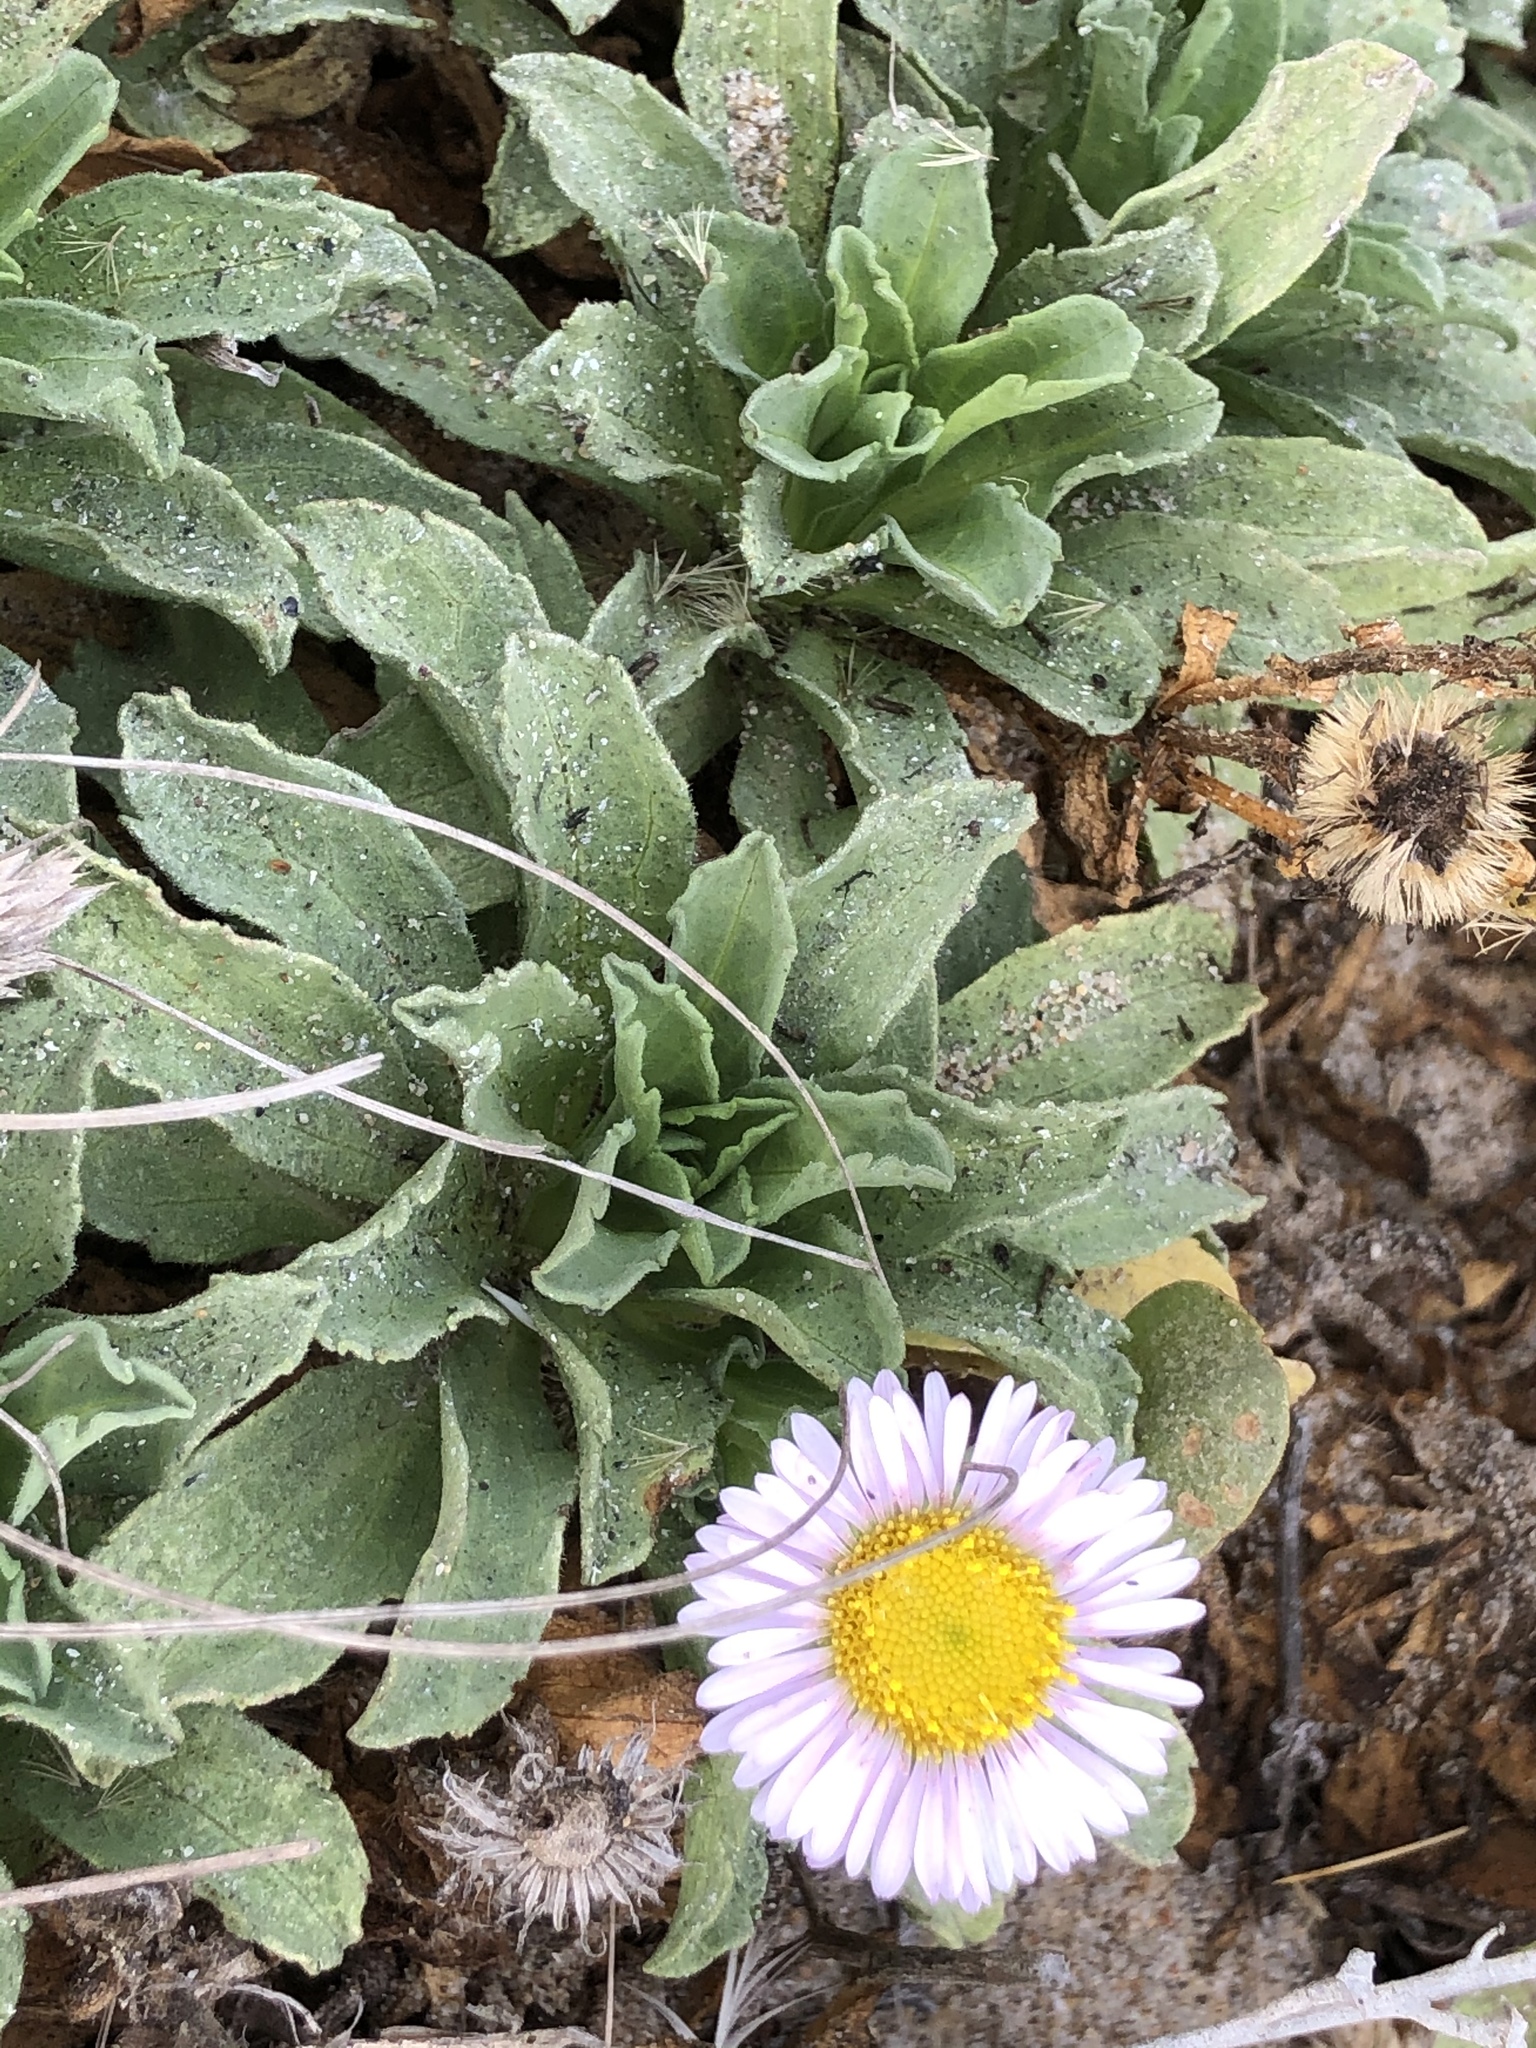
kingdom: Plantae
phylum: Tracheophyta
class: Magnoliopsida
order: Asterales
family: Asteraceae
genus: Erigeron
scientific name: Erigeron glaucus
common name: Seaside daisy
